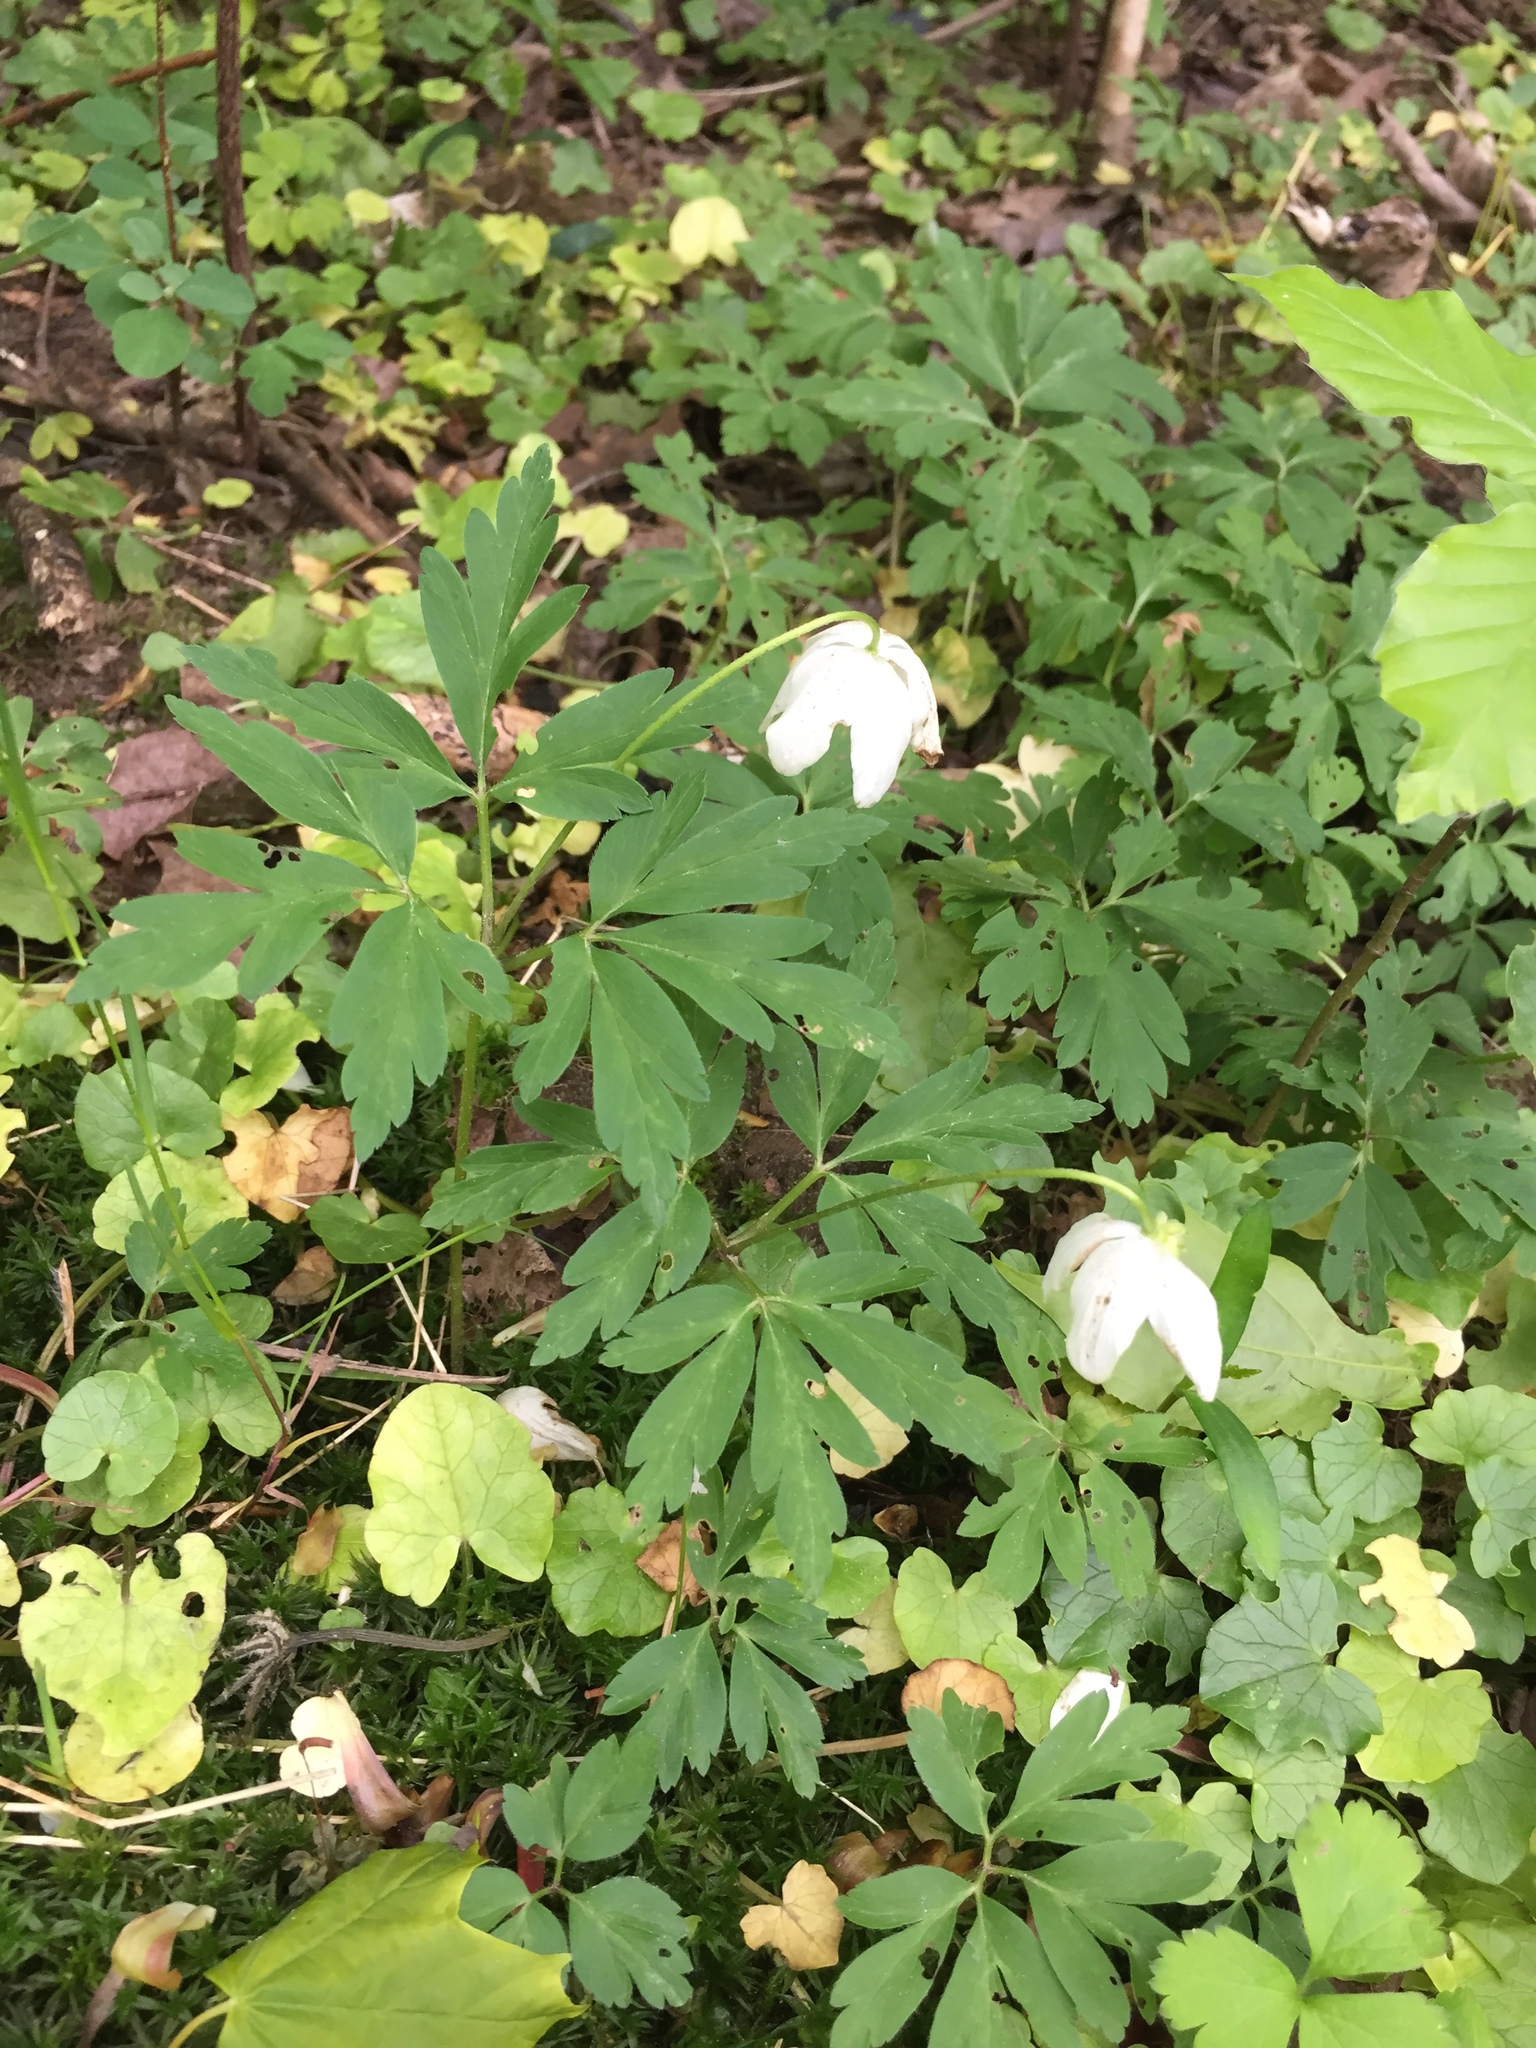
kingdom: Plantae
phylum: Tracheophyta
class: Magnoliopsida
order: Ranunculales
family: Ranunculaceae
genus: Anemone
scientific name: Anemone nemorosa
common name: Wood anemone
